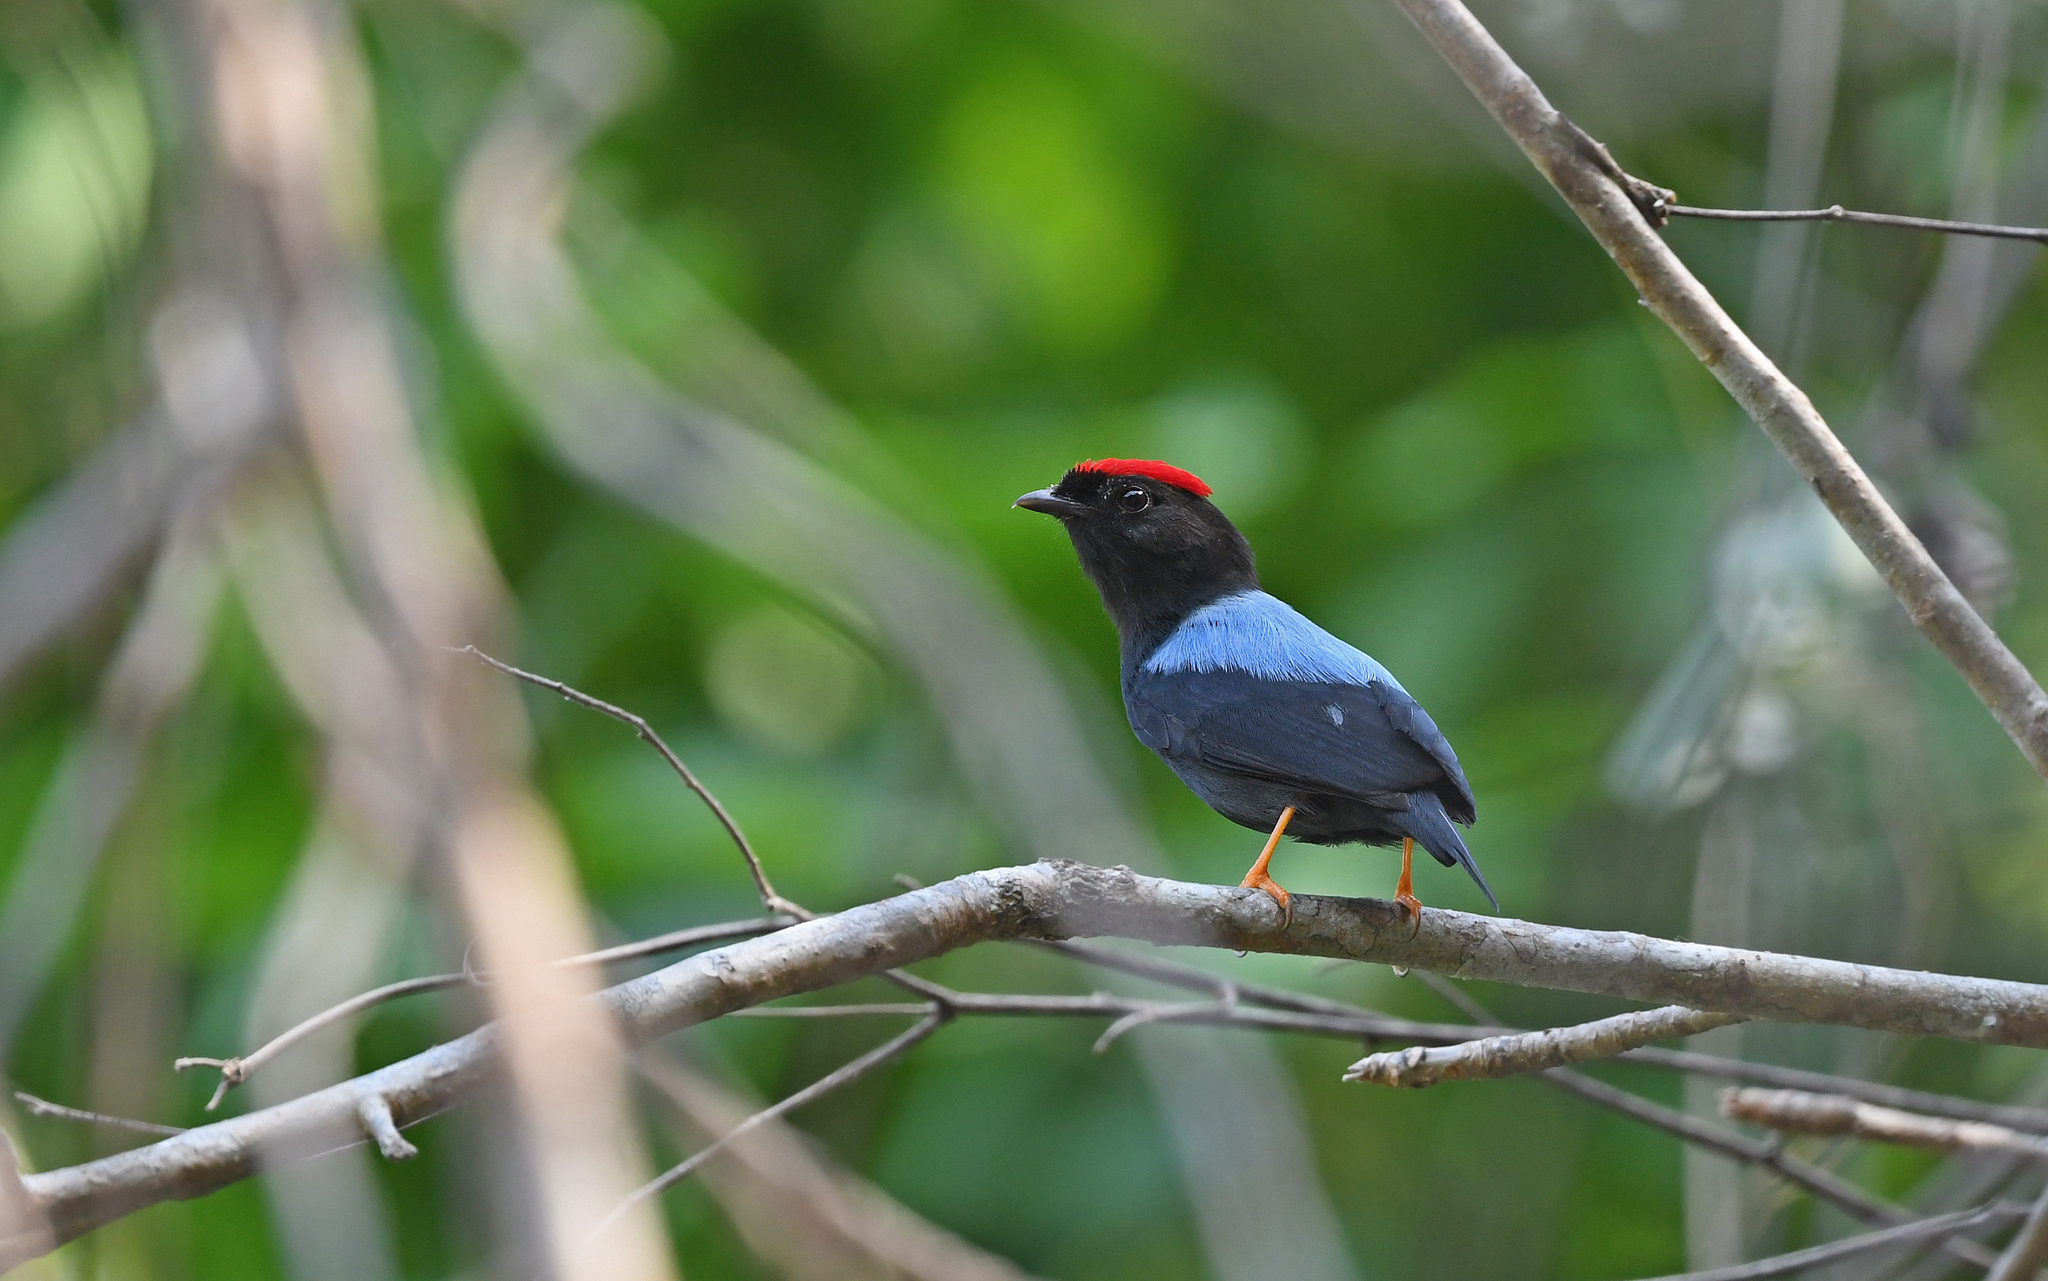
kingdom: Animalia
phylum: Chordata
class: Aves
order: Passeriformes
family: Pipridae
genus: Chiroxiphia
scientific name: Chiroxiphia lanceolata
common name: Lance-tailed manakin
